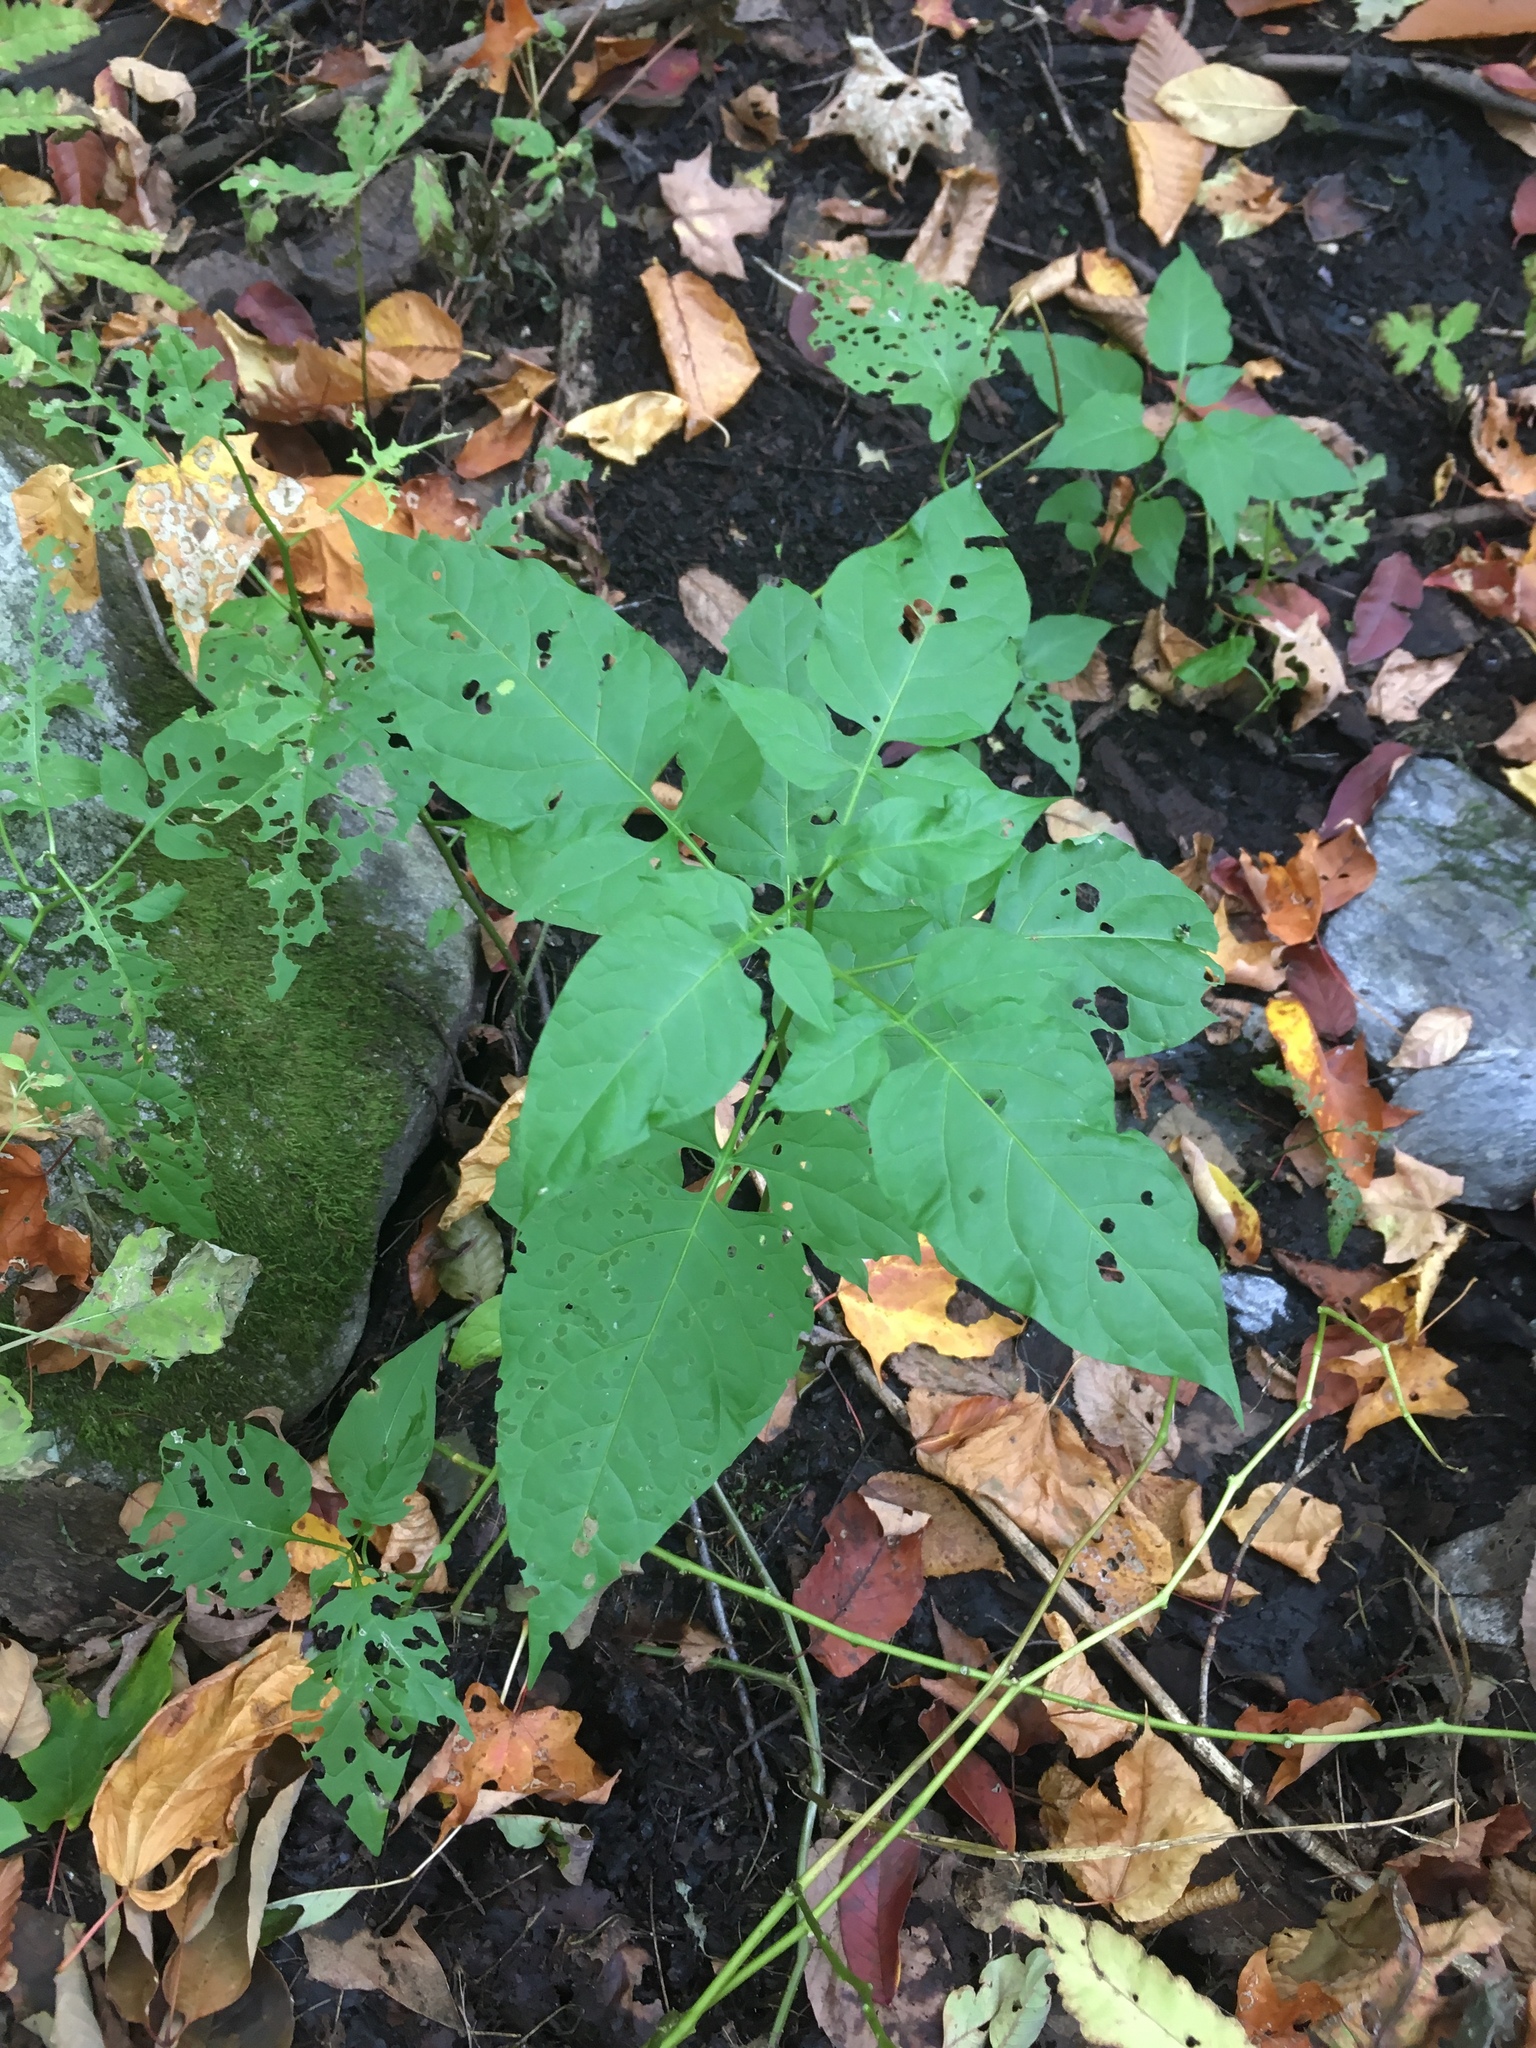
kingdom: Plantae
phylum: Tracheophyta
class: Magnoliopsida
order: Solanales
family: Solanaceae
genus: Solanum
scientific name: Solanum dulcamara
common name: Climbing nightshade
